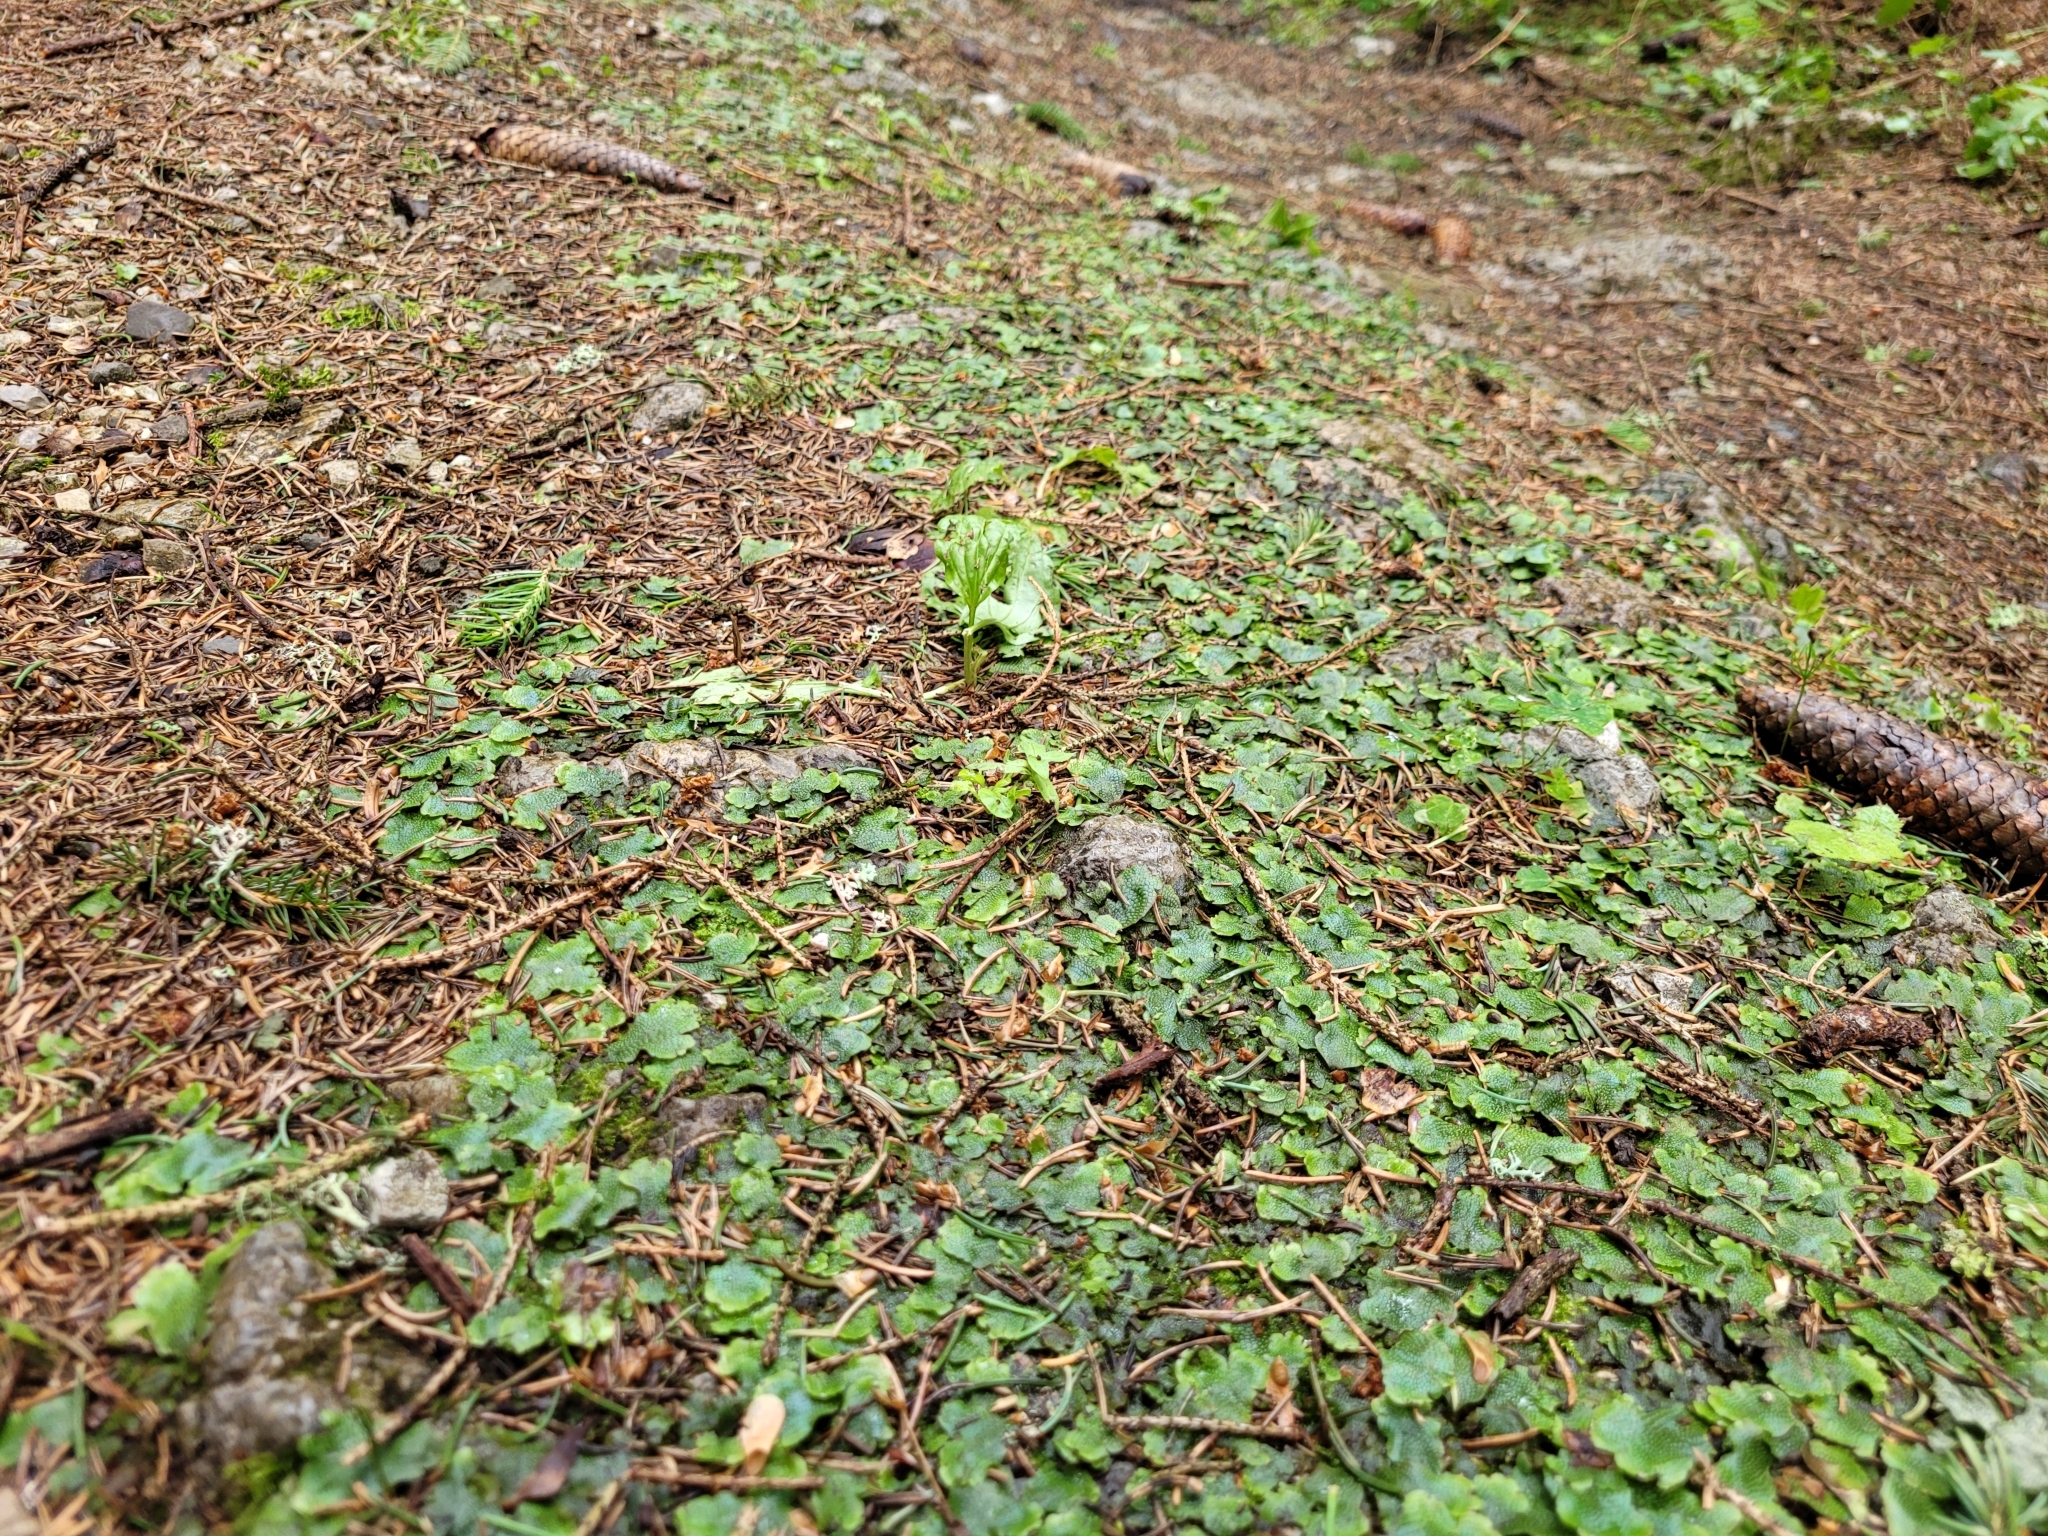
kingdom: Plantae
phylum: Marchantiophyta
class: Marchantiopsida
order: Marchantiales
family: Conocephalaceae
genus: Conocephalum
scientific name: Conocephalum salebrosum
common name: Cat-tongue liverwort
